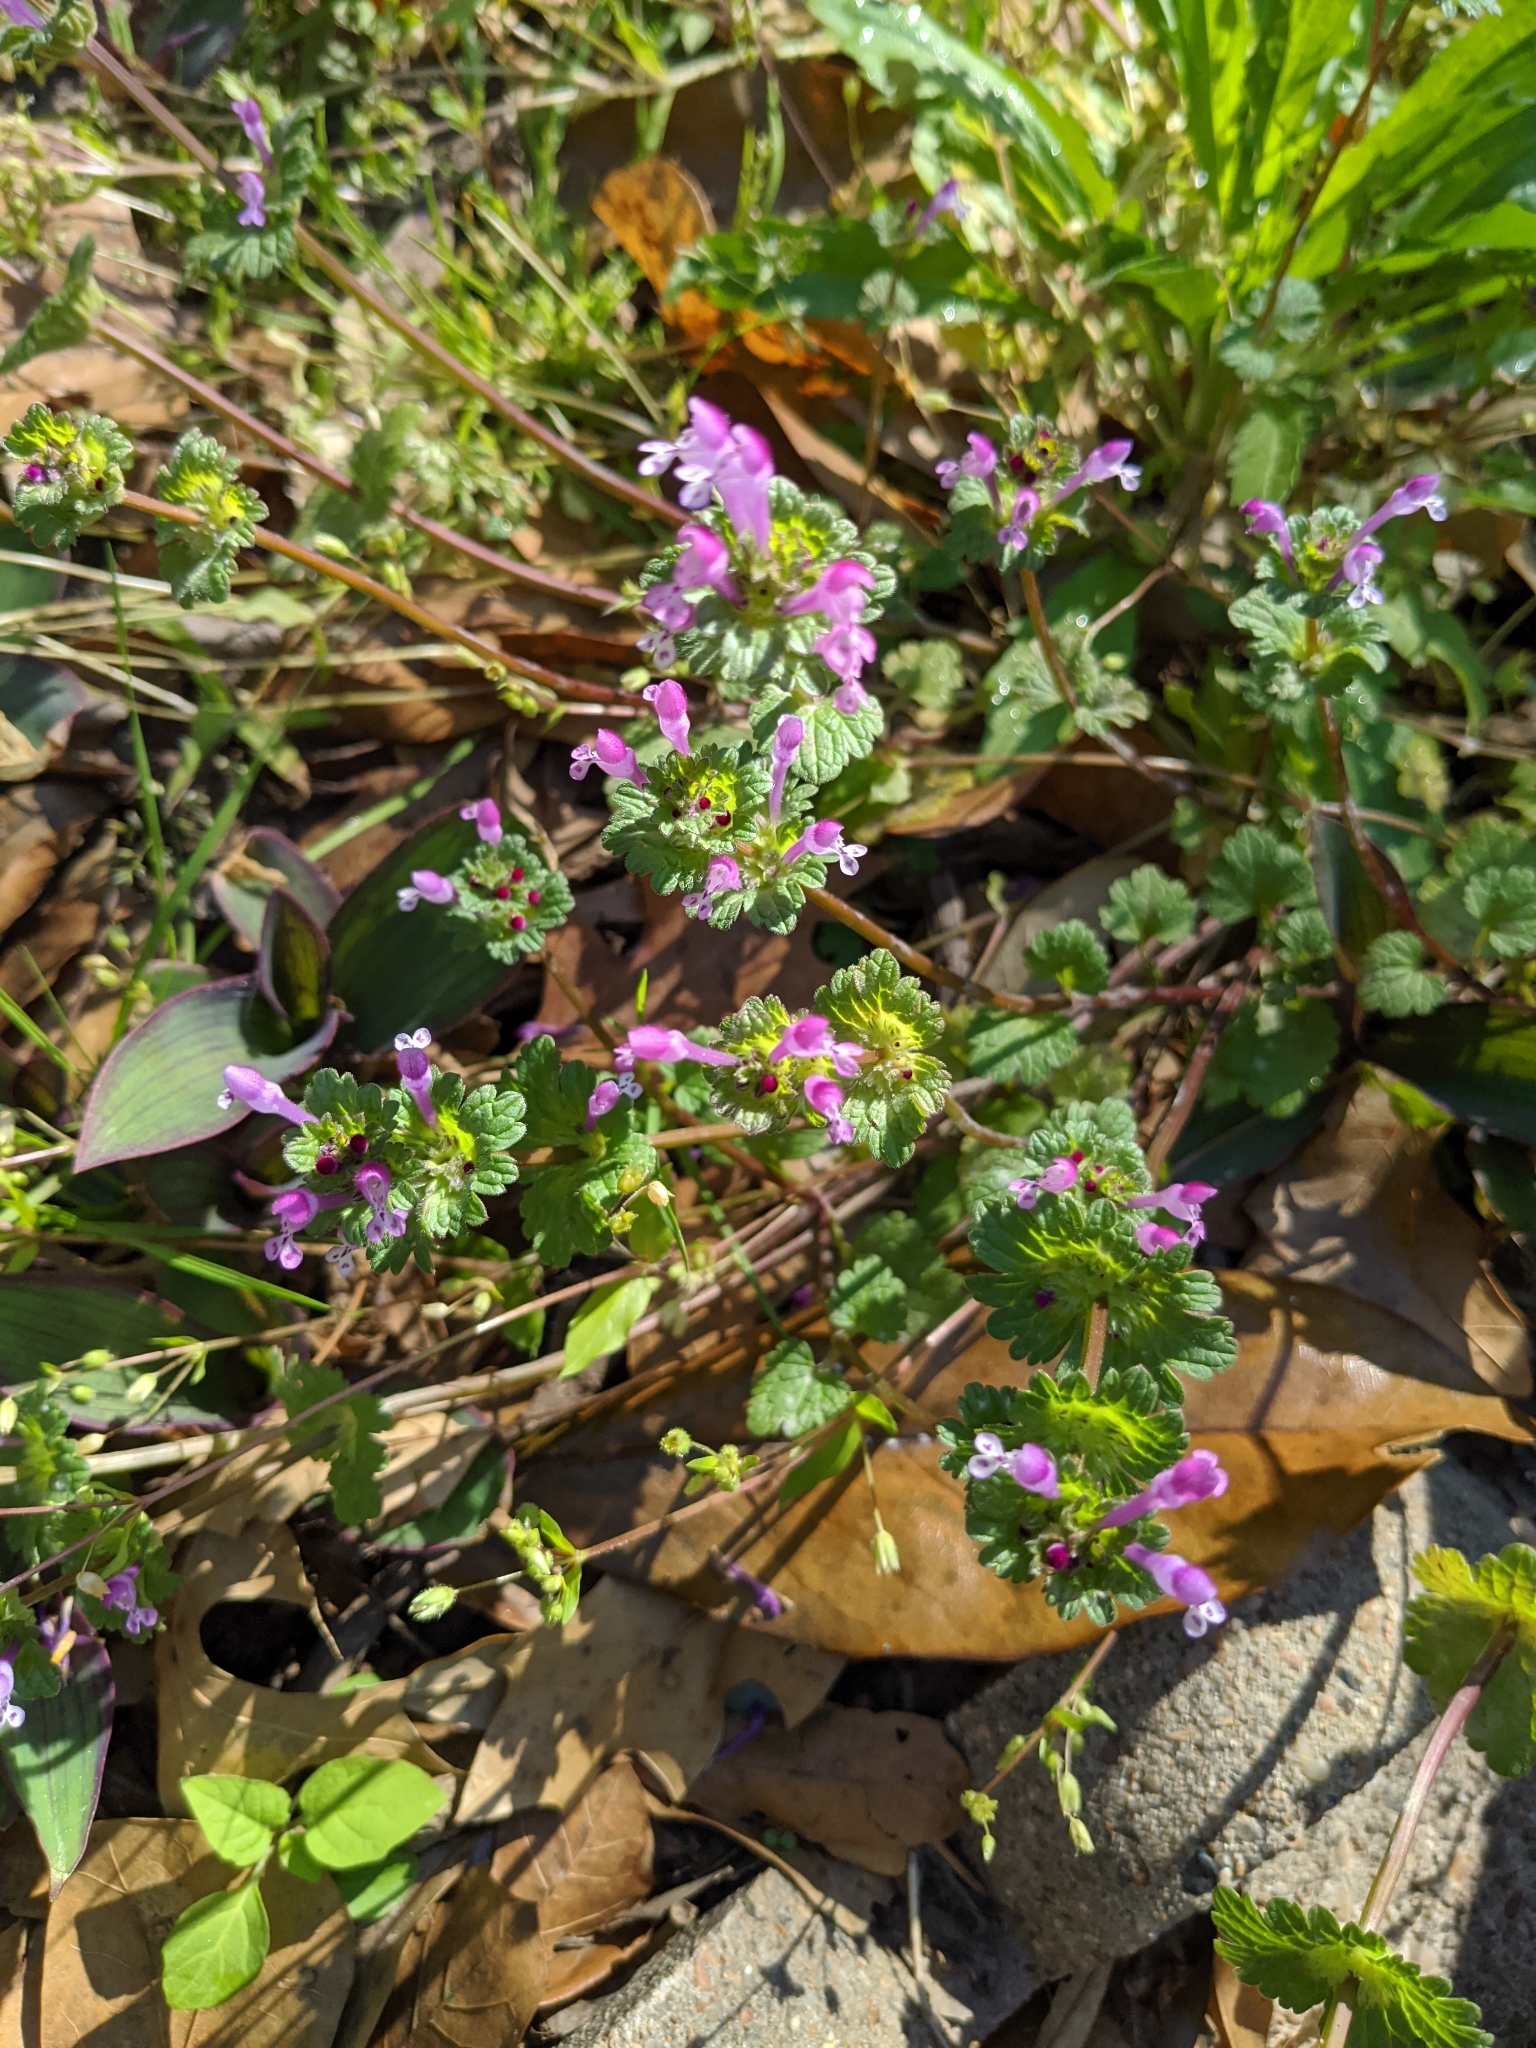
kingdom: Plantae
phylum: Tracheophyta
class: Magnoliopsida
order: Lamiales
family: Lamiaceae
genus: Lamium
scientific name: Lamium amplexicaule
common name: Henbit dead-nettle
